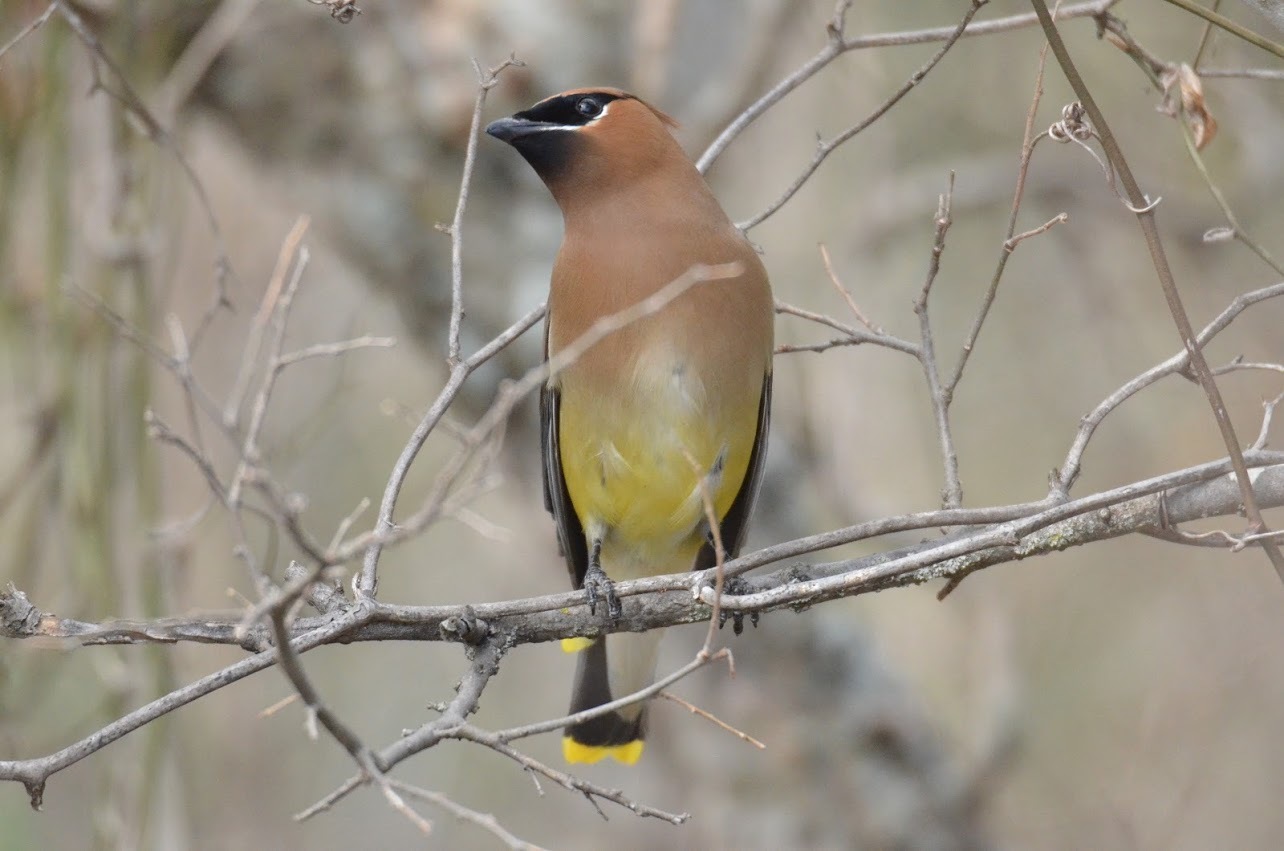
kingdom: Animalia
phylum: Chordata
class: Aves
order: Passeriformes
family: Bombycillidae
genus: Bombycilla
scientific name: Bombycilla cedrorum
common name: Cedar waxwing
